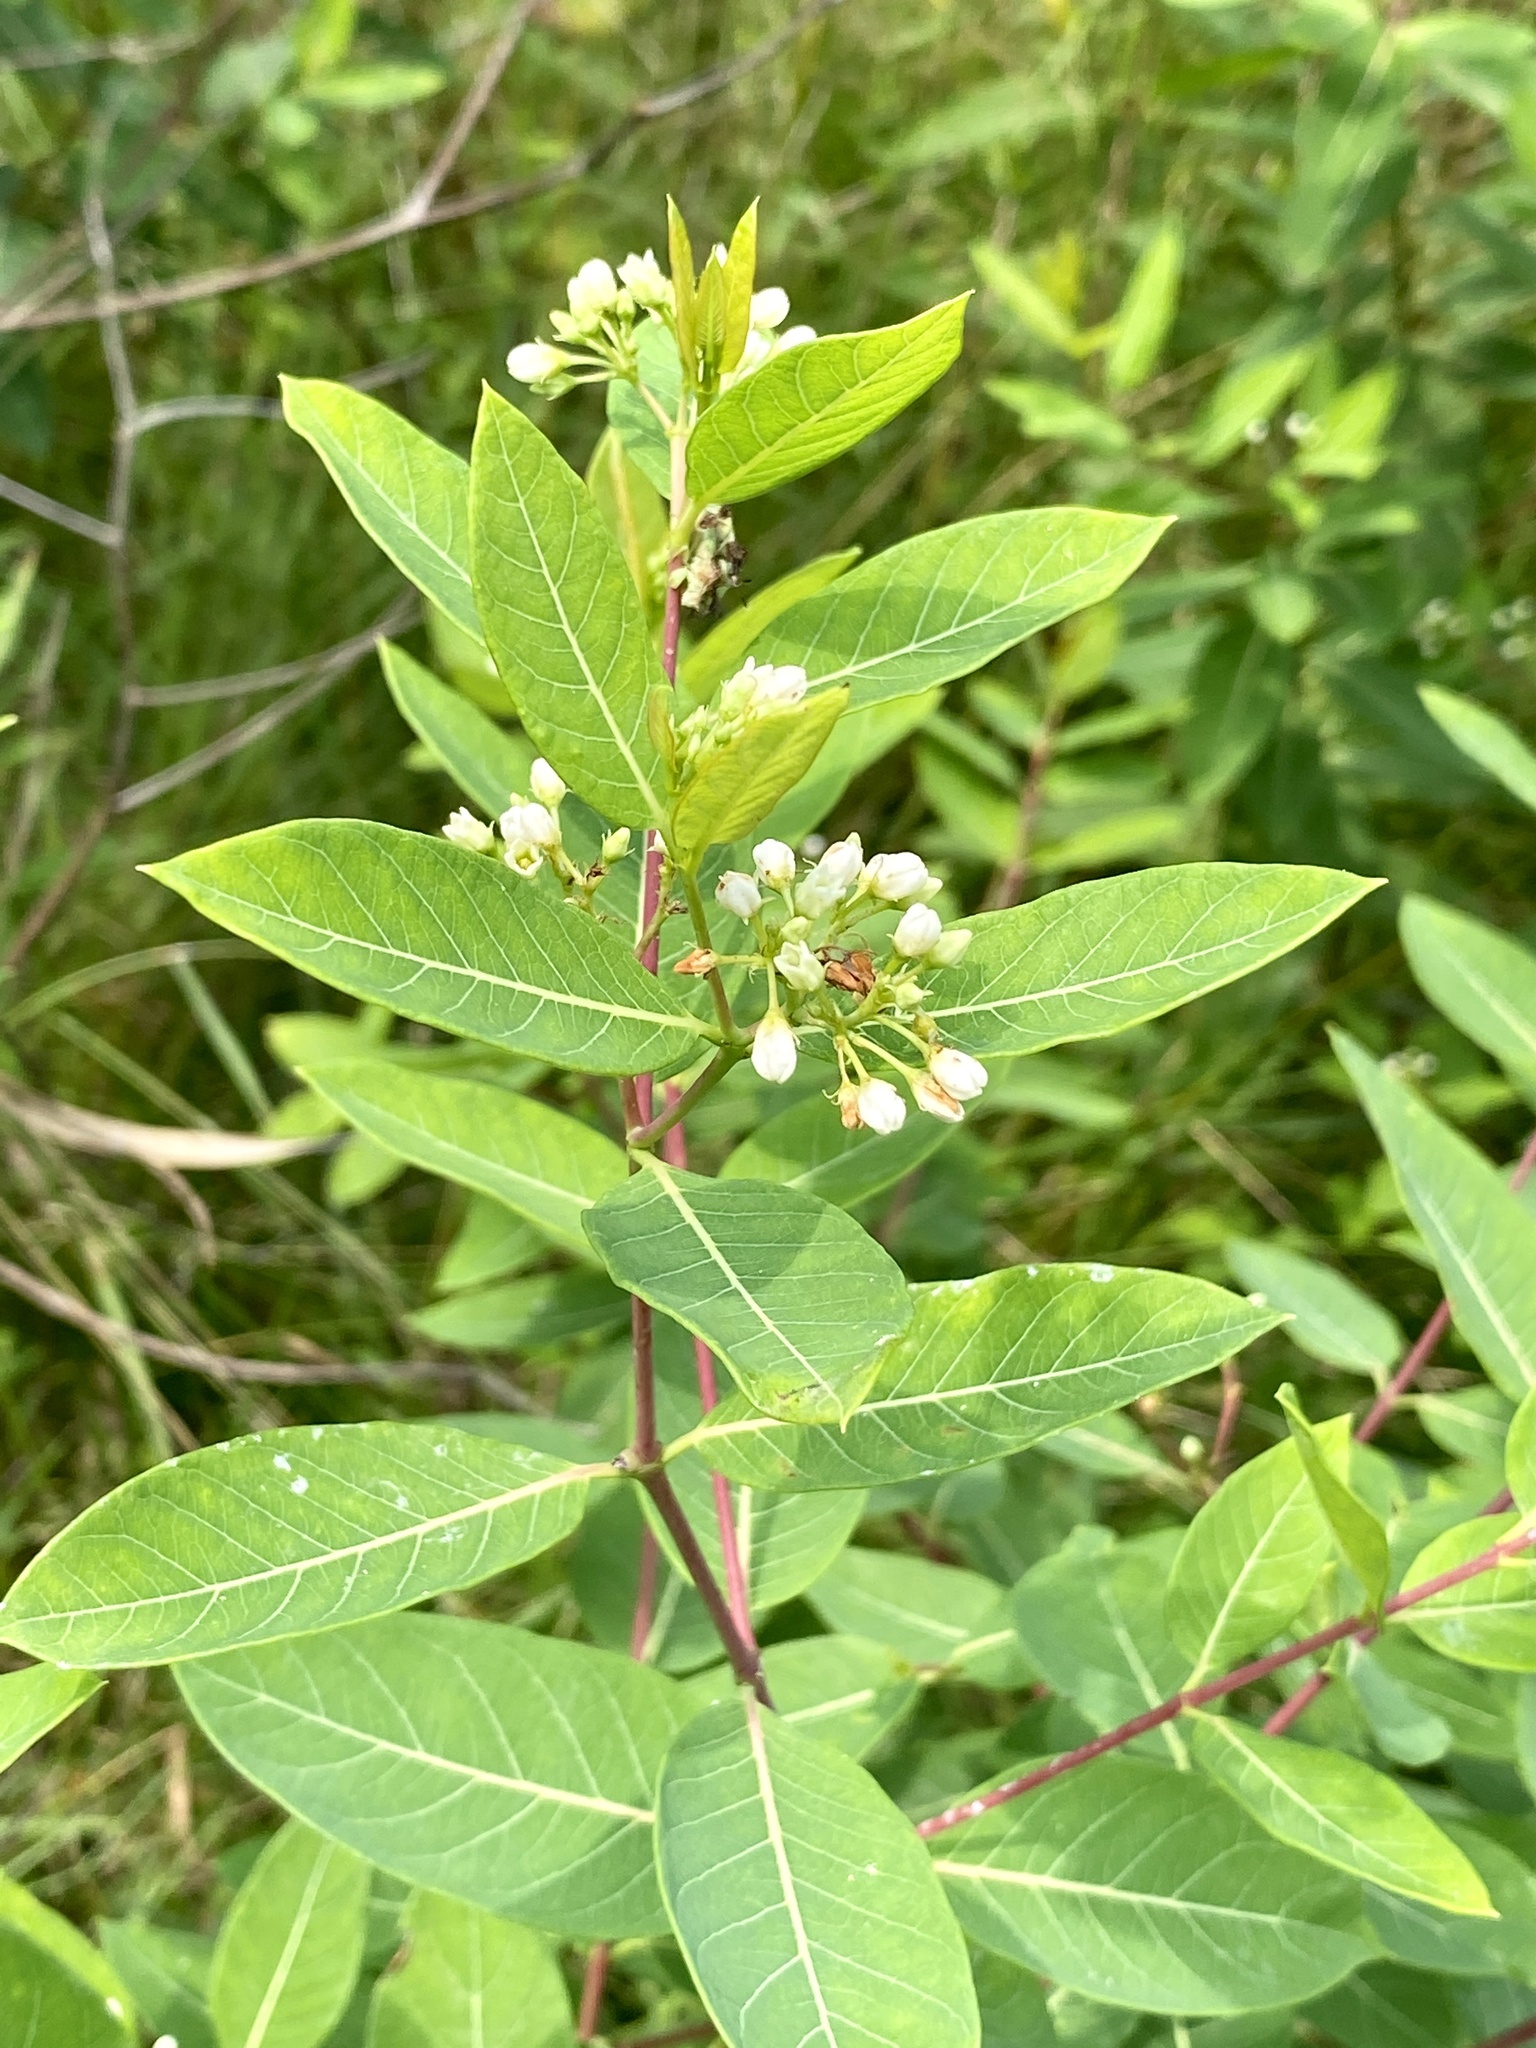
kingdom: Plantae
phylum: Tracheophyta
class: Magnoliopsida
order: Gentianales
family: Apocynaceae
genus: Apocynum
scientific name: Apocynum cannabinum
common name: Hemp dogbane
